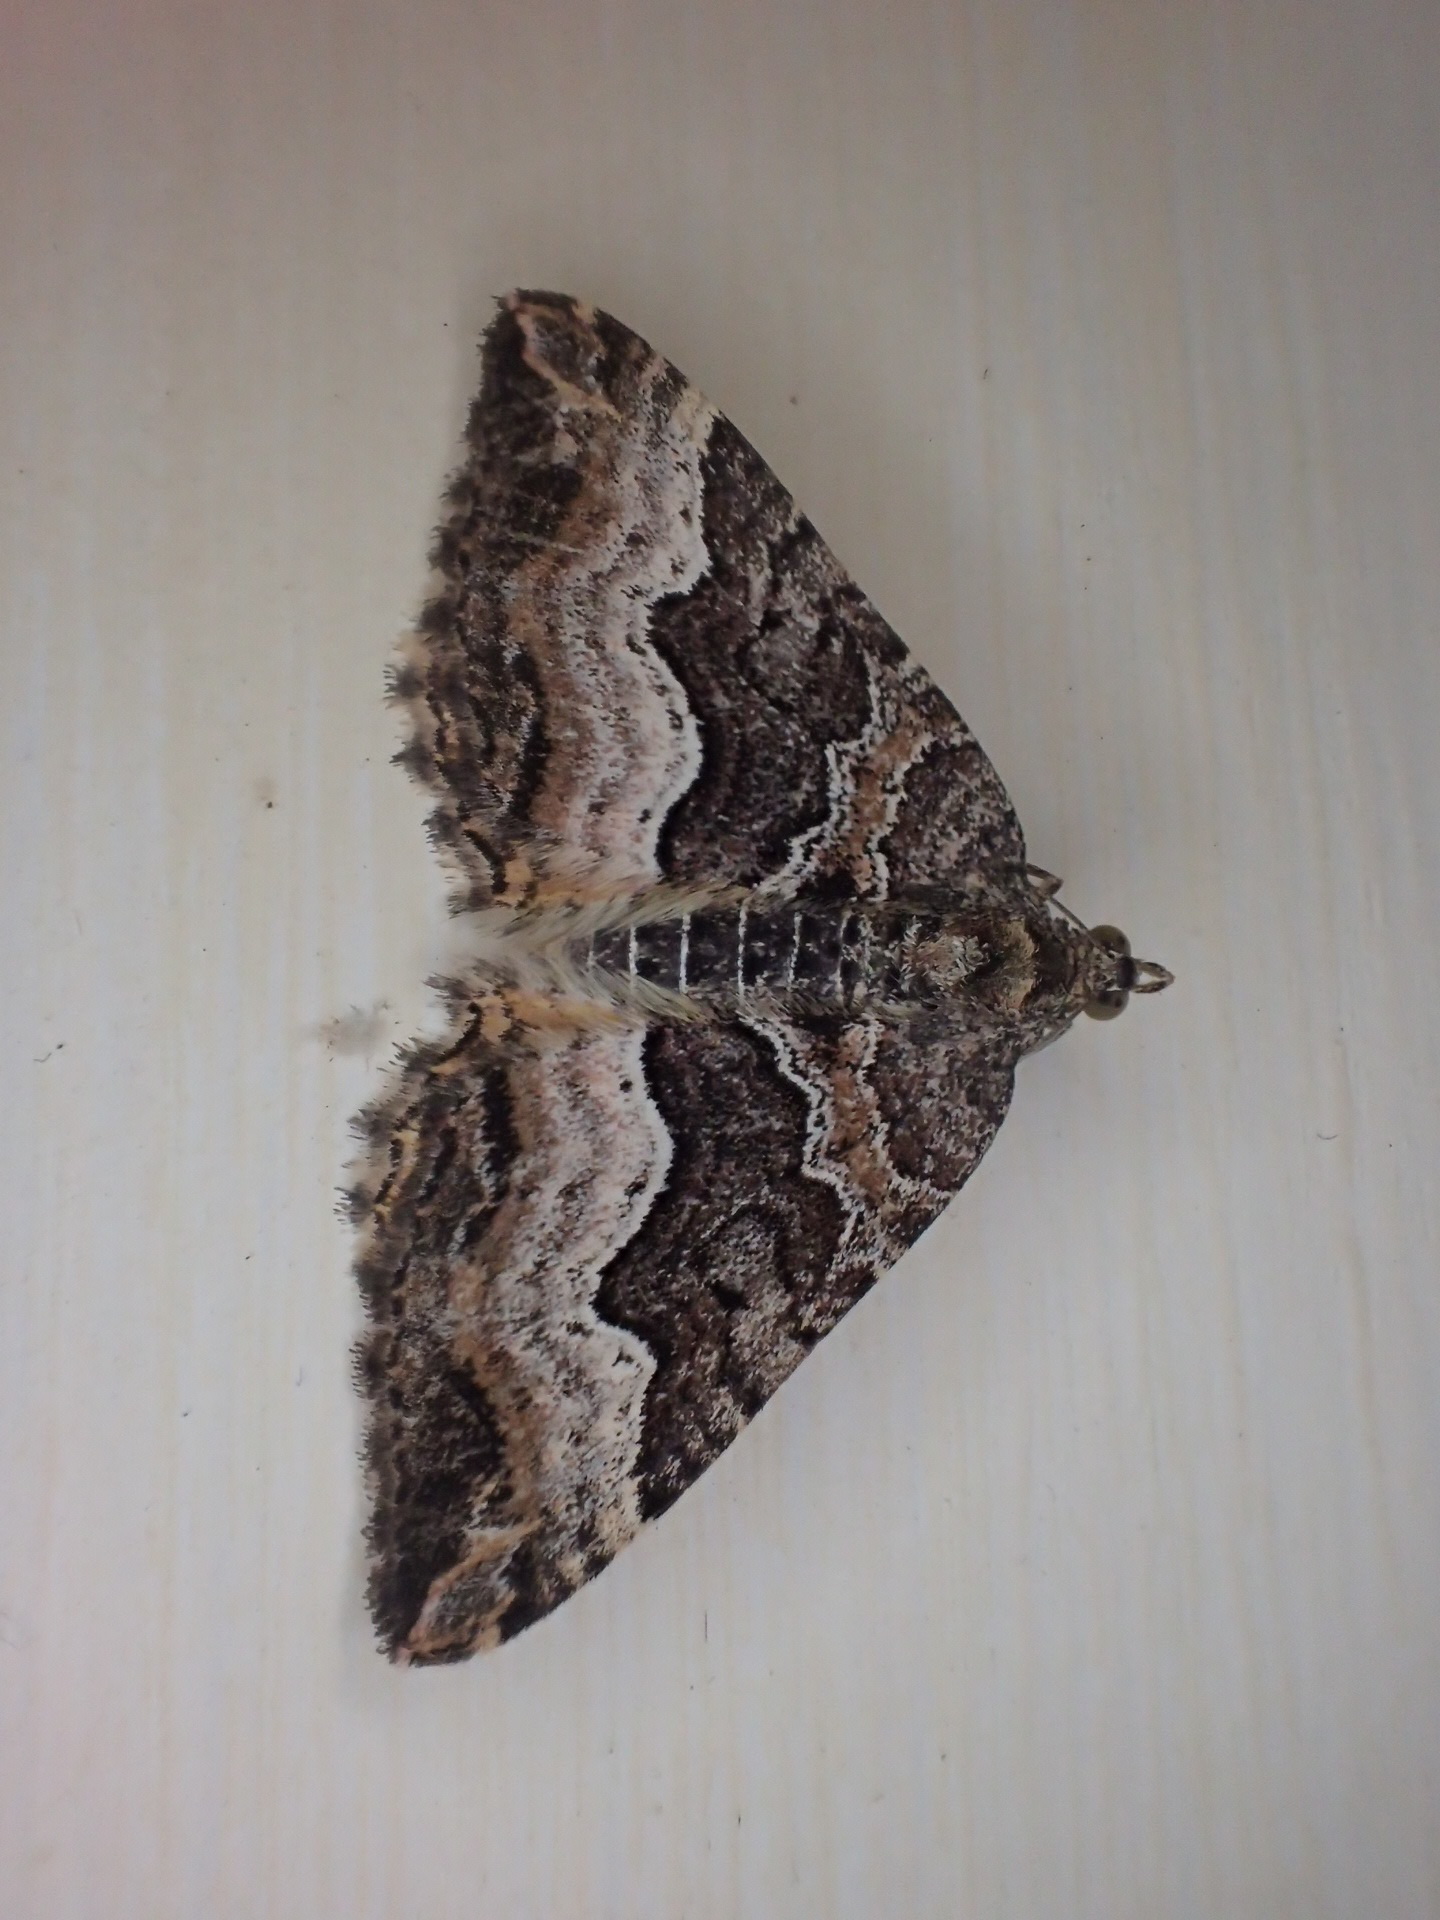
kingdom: Animalia
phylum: Arthropoda
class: Insecta
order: Lepidoptera
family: Geometridae
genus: Chrysolarentia
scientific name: Chrysolarentia lucidulata
